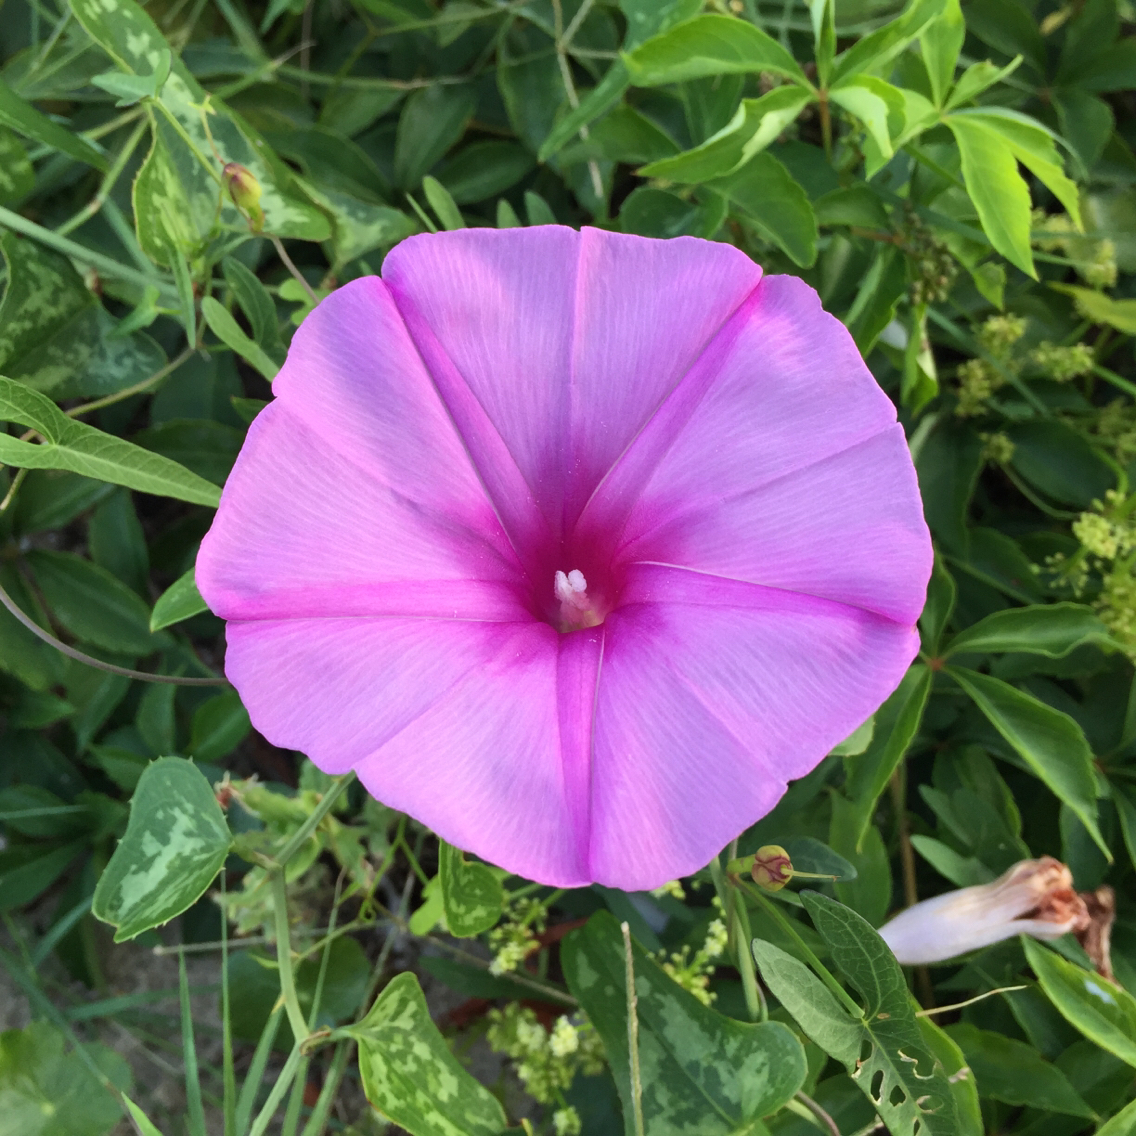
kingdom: Plantae
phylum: Tracheophyta
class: Magnoliopsida
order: Solanales
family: Convolvulaceae
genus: Ipomoea
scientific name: Ipomoea sagittata
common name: Saltmarsh morning glory
